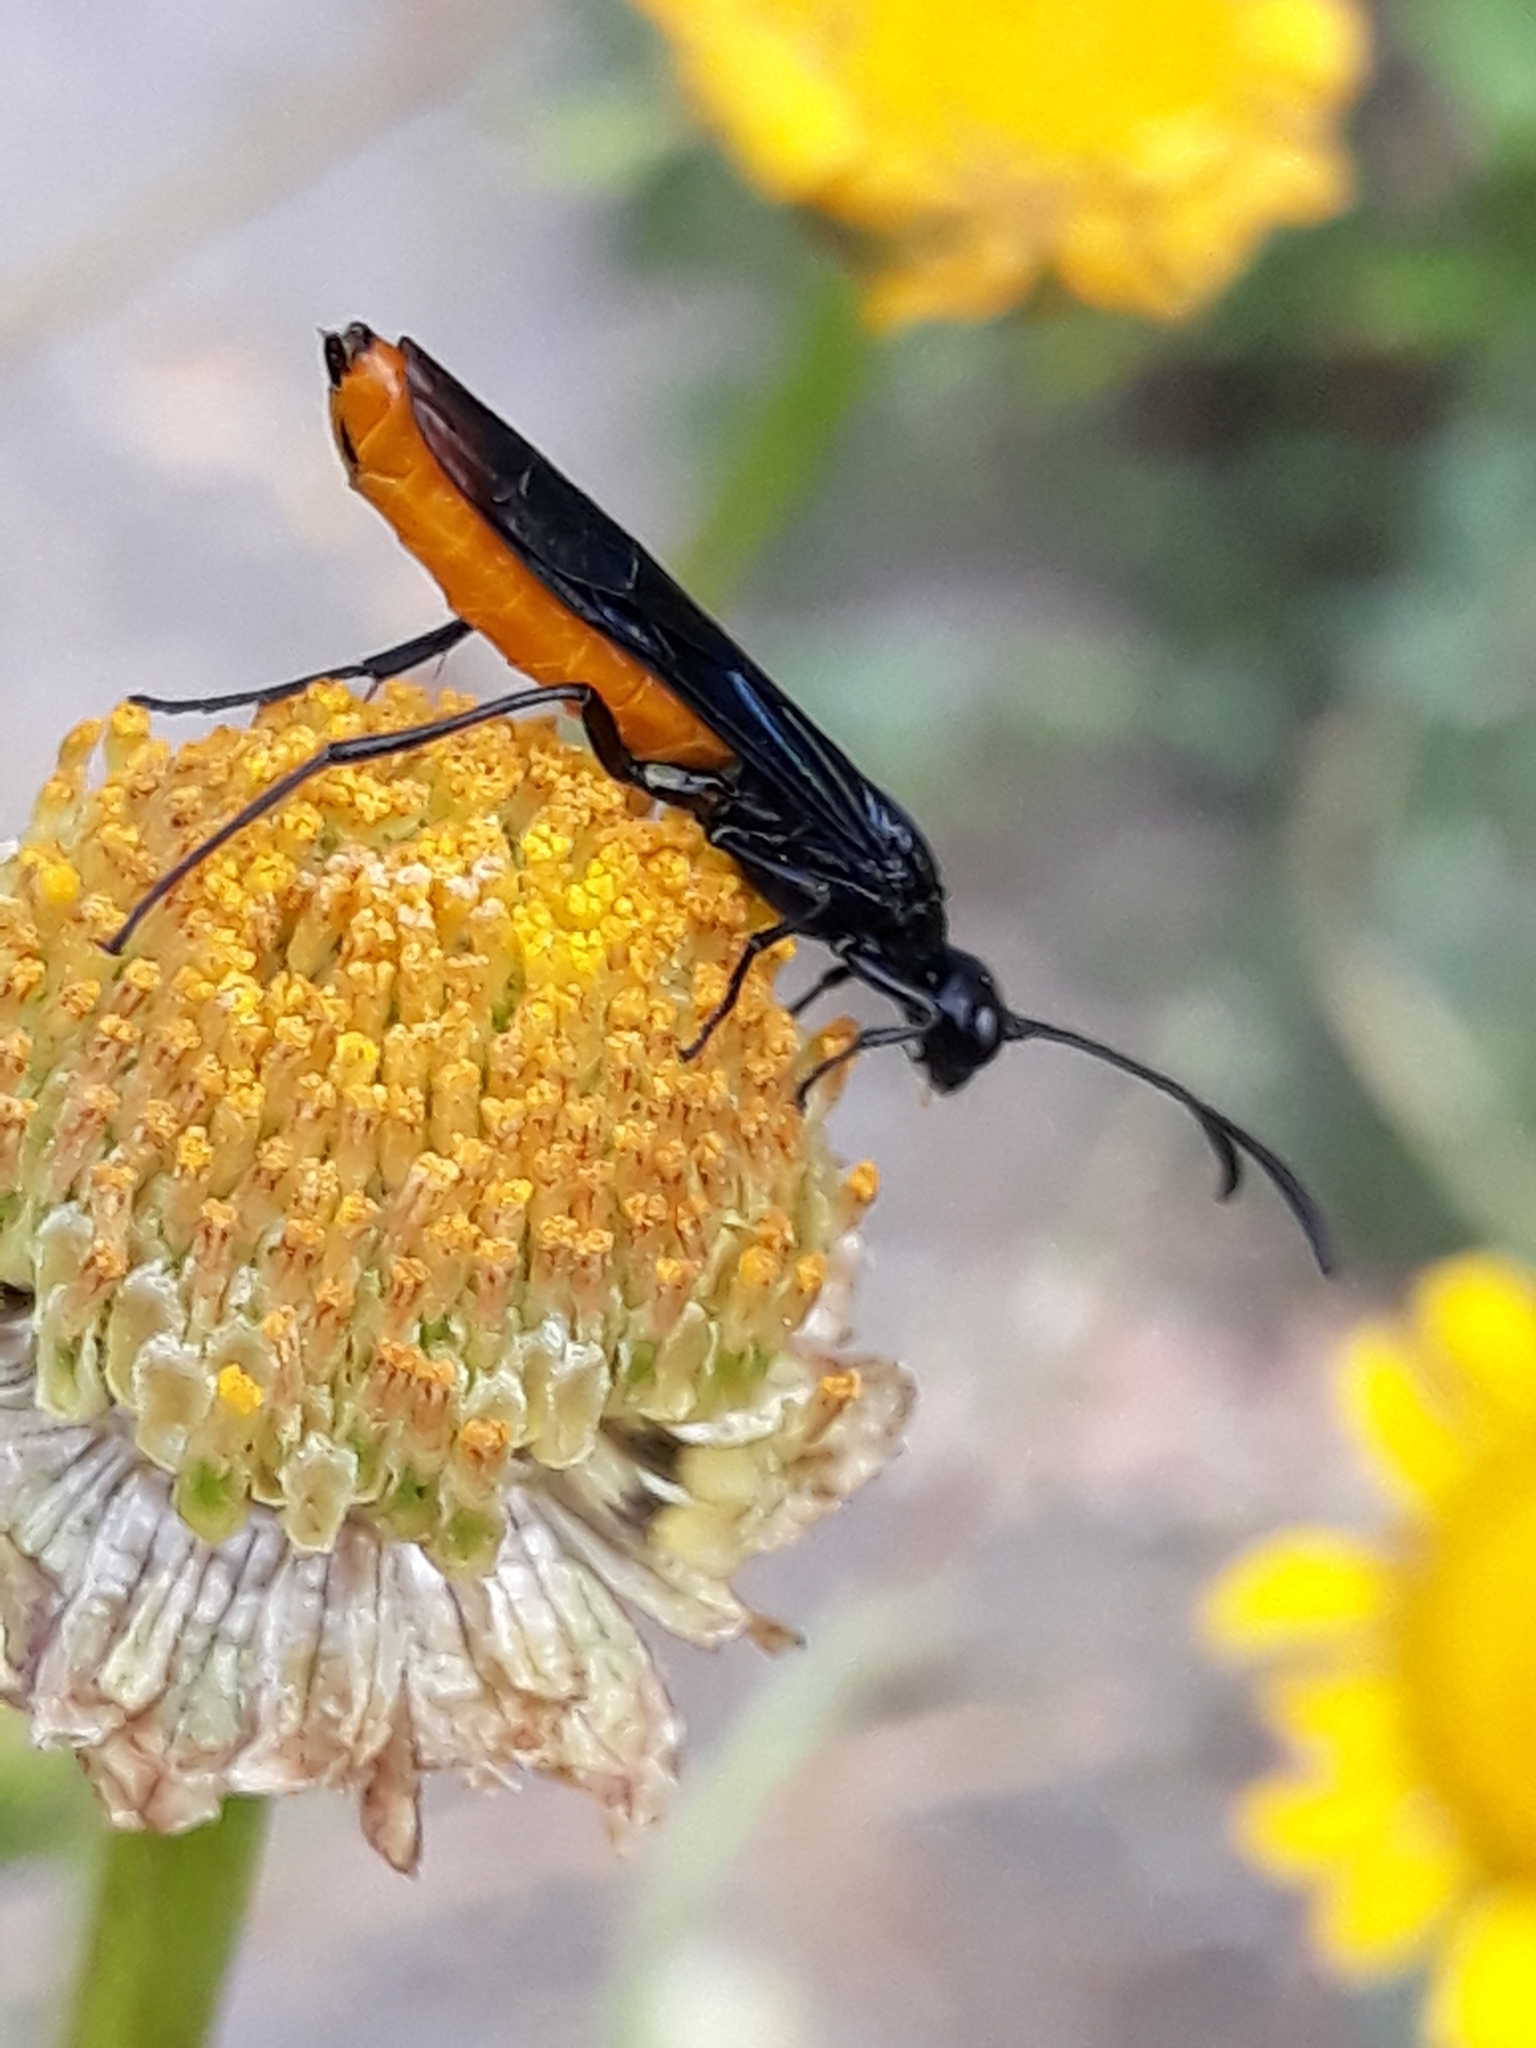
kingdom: Animalia
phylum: Arthropoda
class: Insecta
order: Hymenoptera
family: Ichneumonidae
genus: Ichneumon
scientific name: Ichneumon pygmaeus
